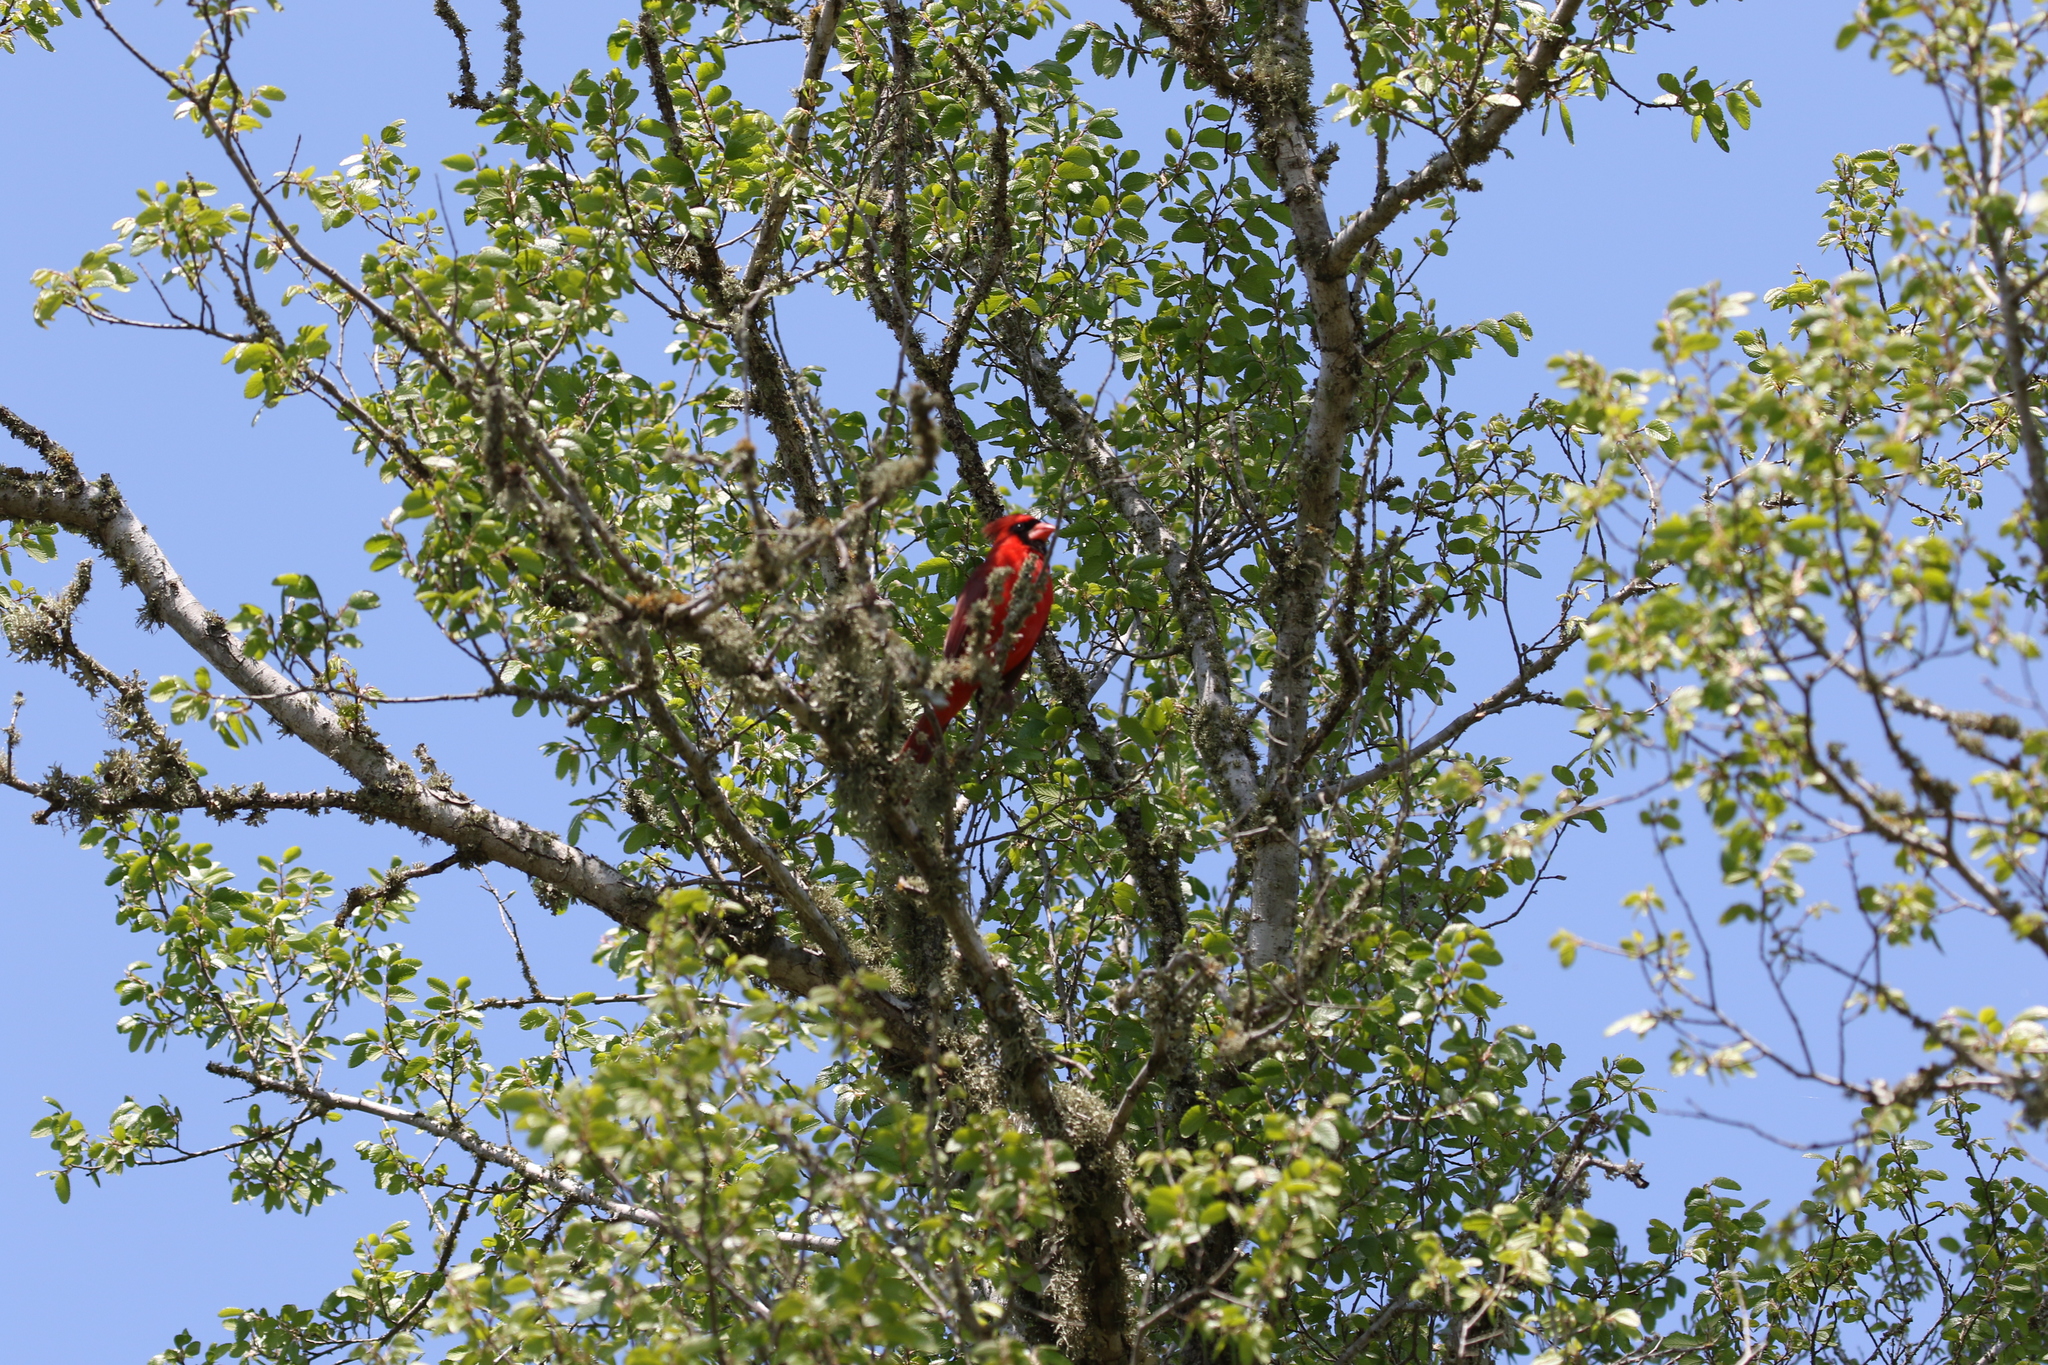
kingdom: Animalia
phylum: Chordata
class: Aves
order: Passeriformes
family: Cardinalidae
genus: Cardinalis
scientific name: Cardinalis cardinalis
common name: Northern cardinal
